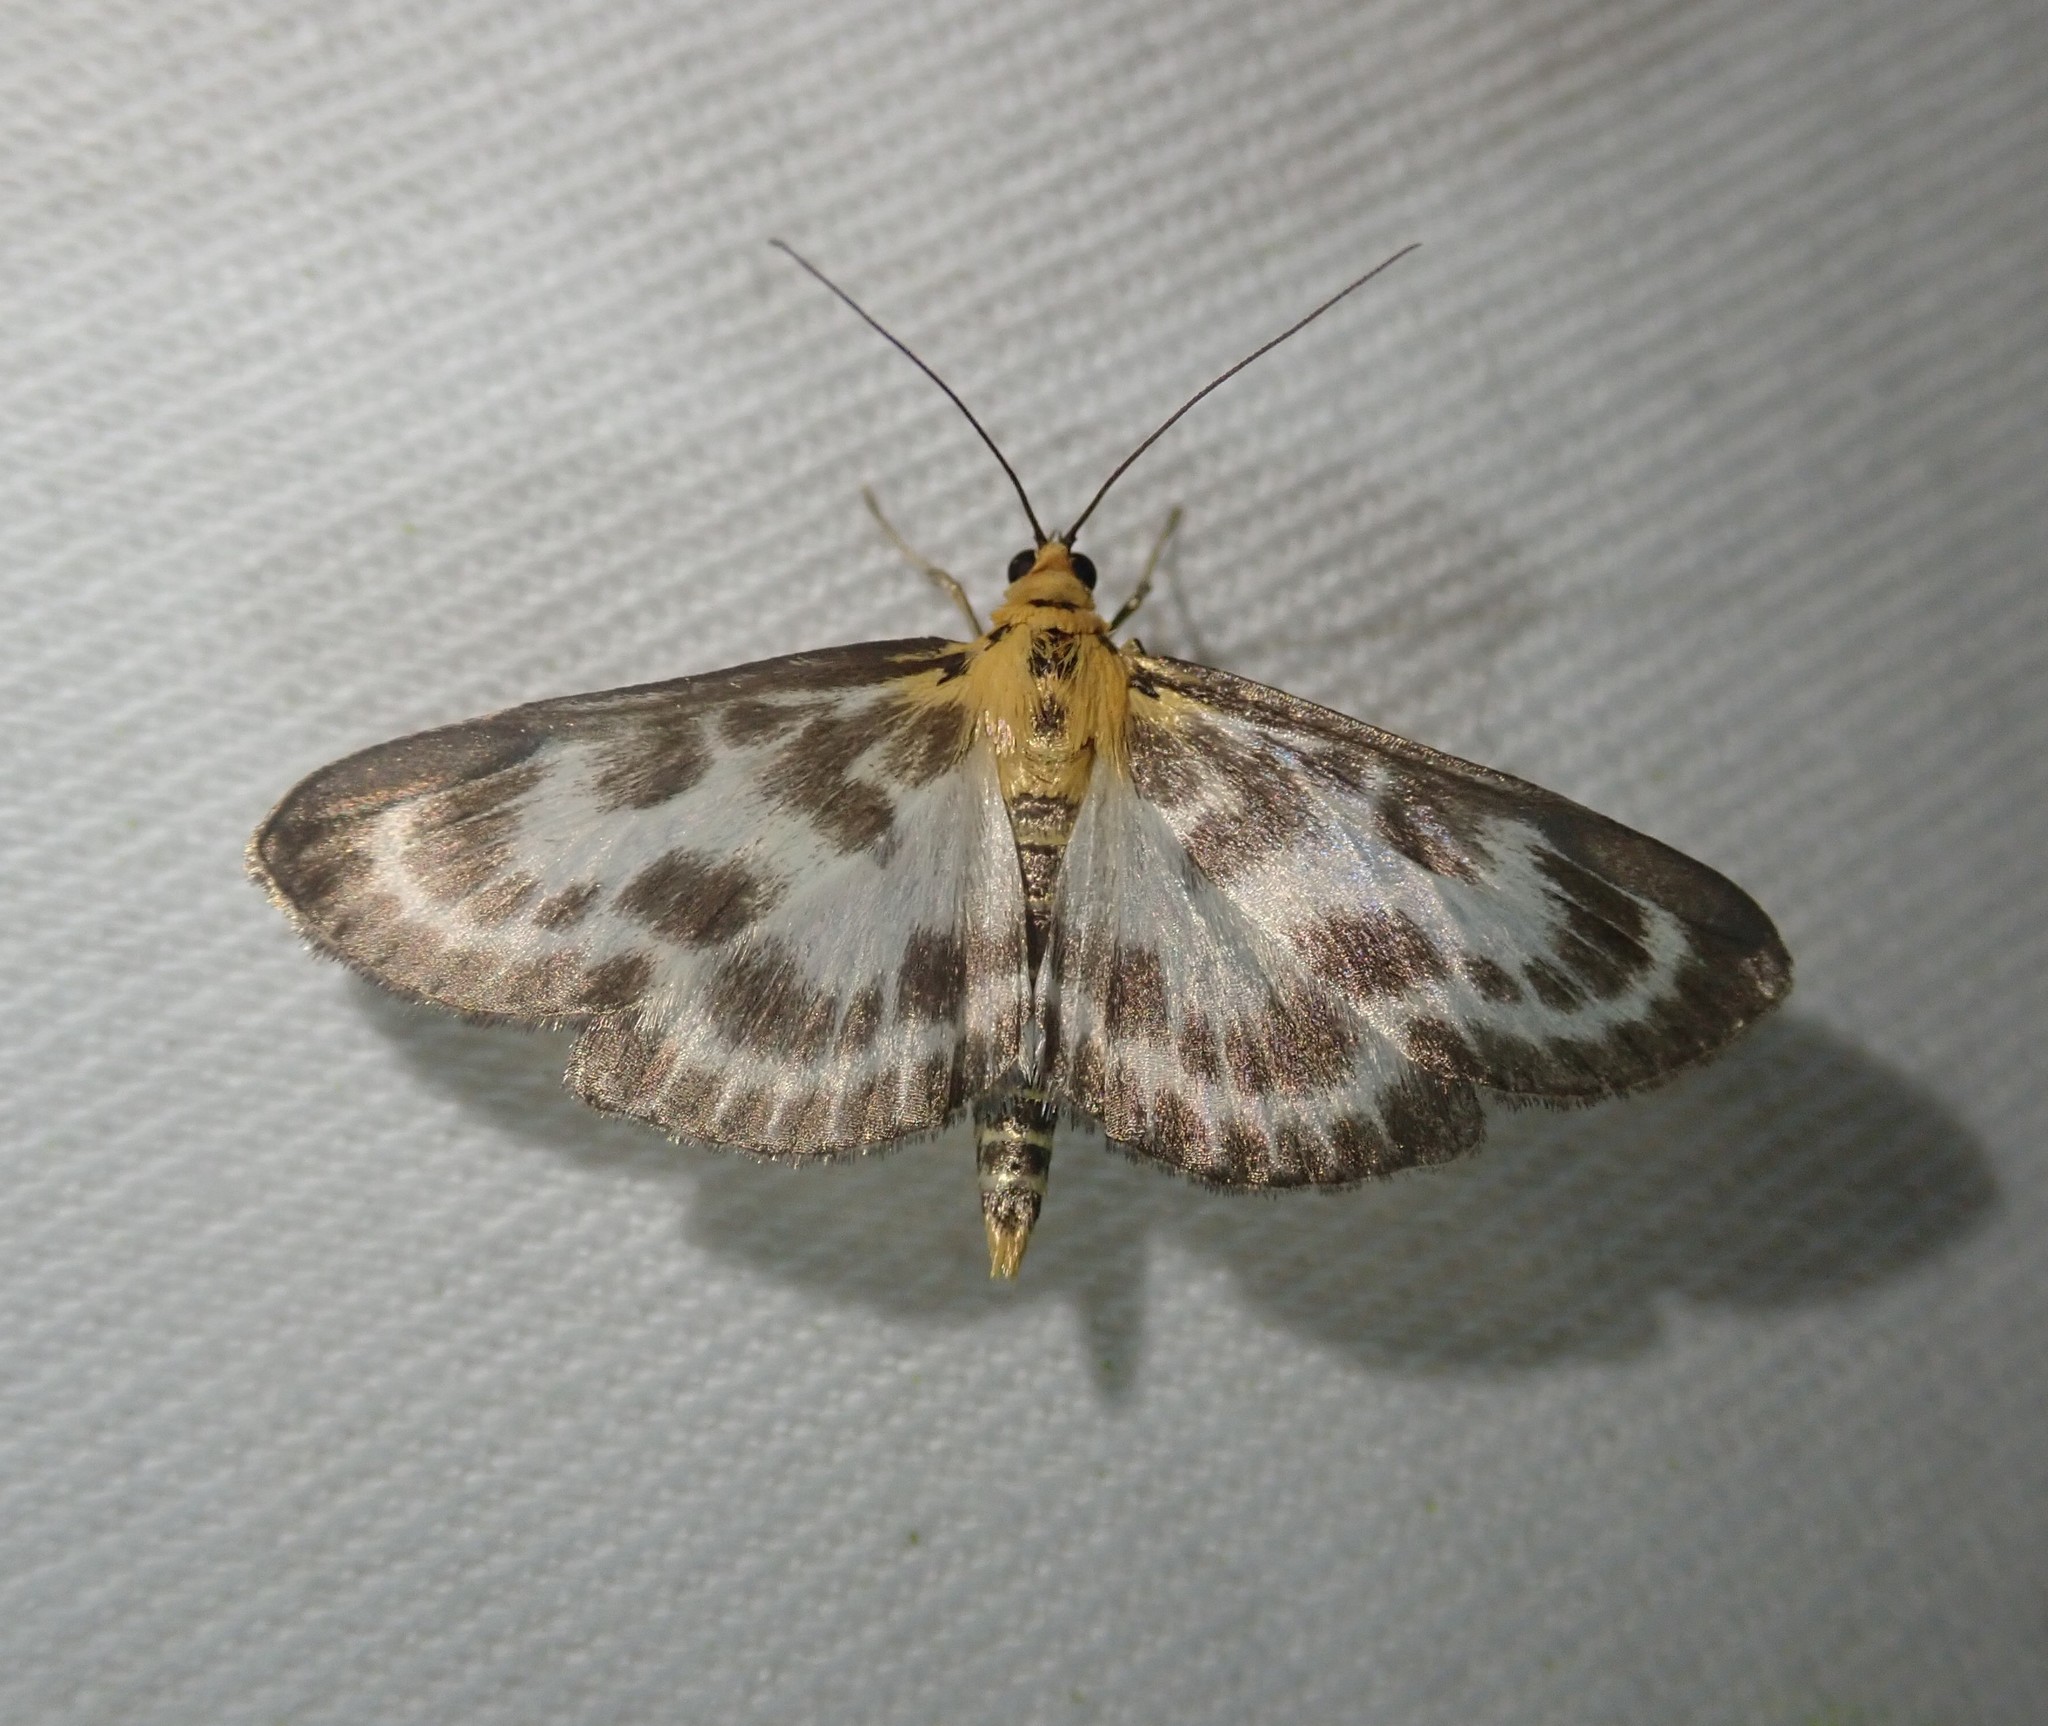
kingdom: Animalia
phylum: Arthropoda
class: Insecta
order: Lepidoptera
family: Crambidae
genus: Anania
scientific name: Anania hortulata
